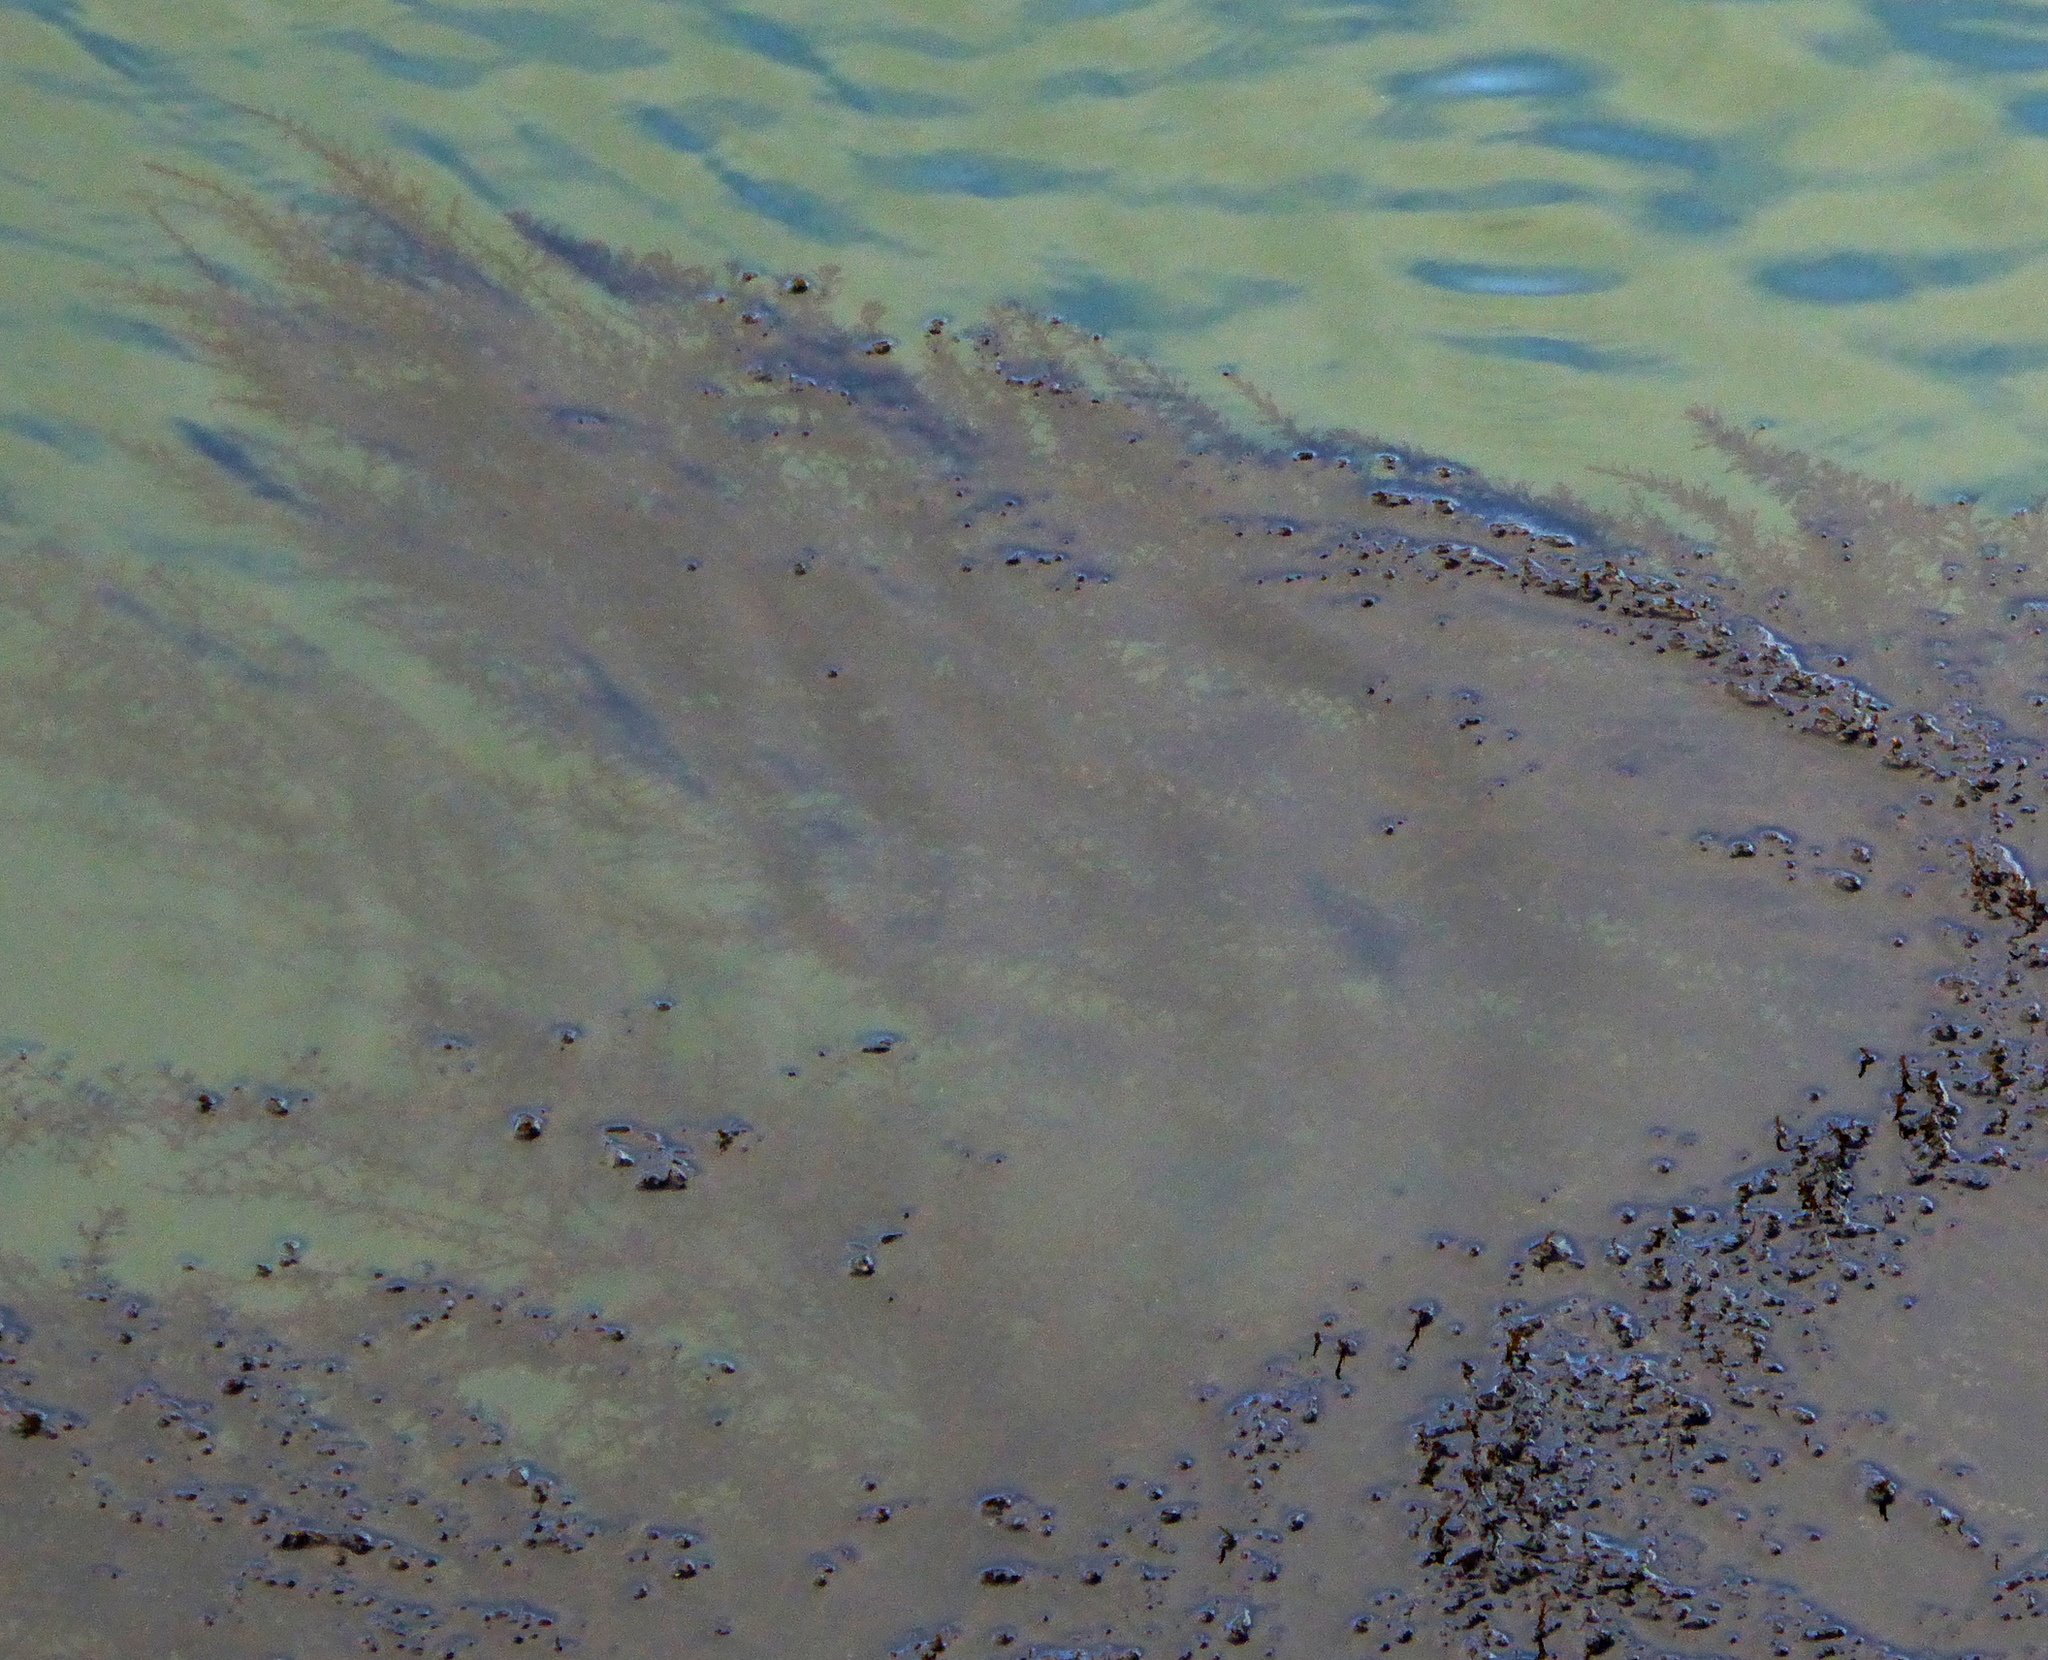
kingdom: Chromista
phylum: Ochrophyta
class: Phaeophyceae
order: Fucales
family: Sargassaceae
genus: Sargassum
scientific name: Sargassum muticum
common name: Japweed
